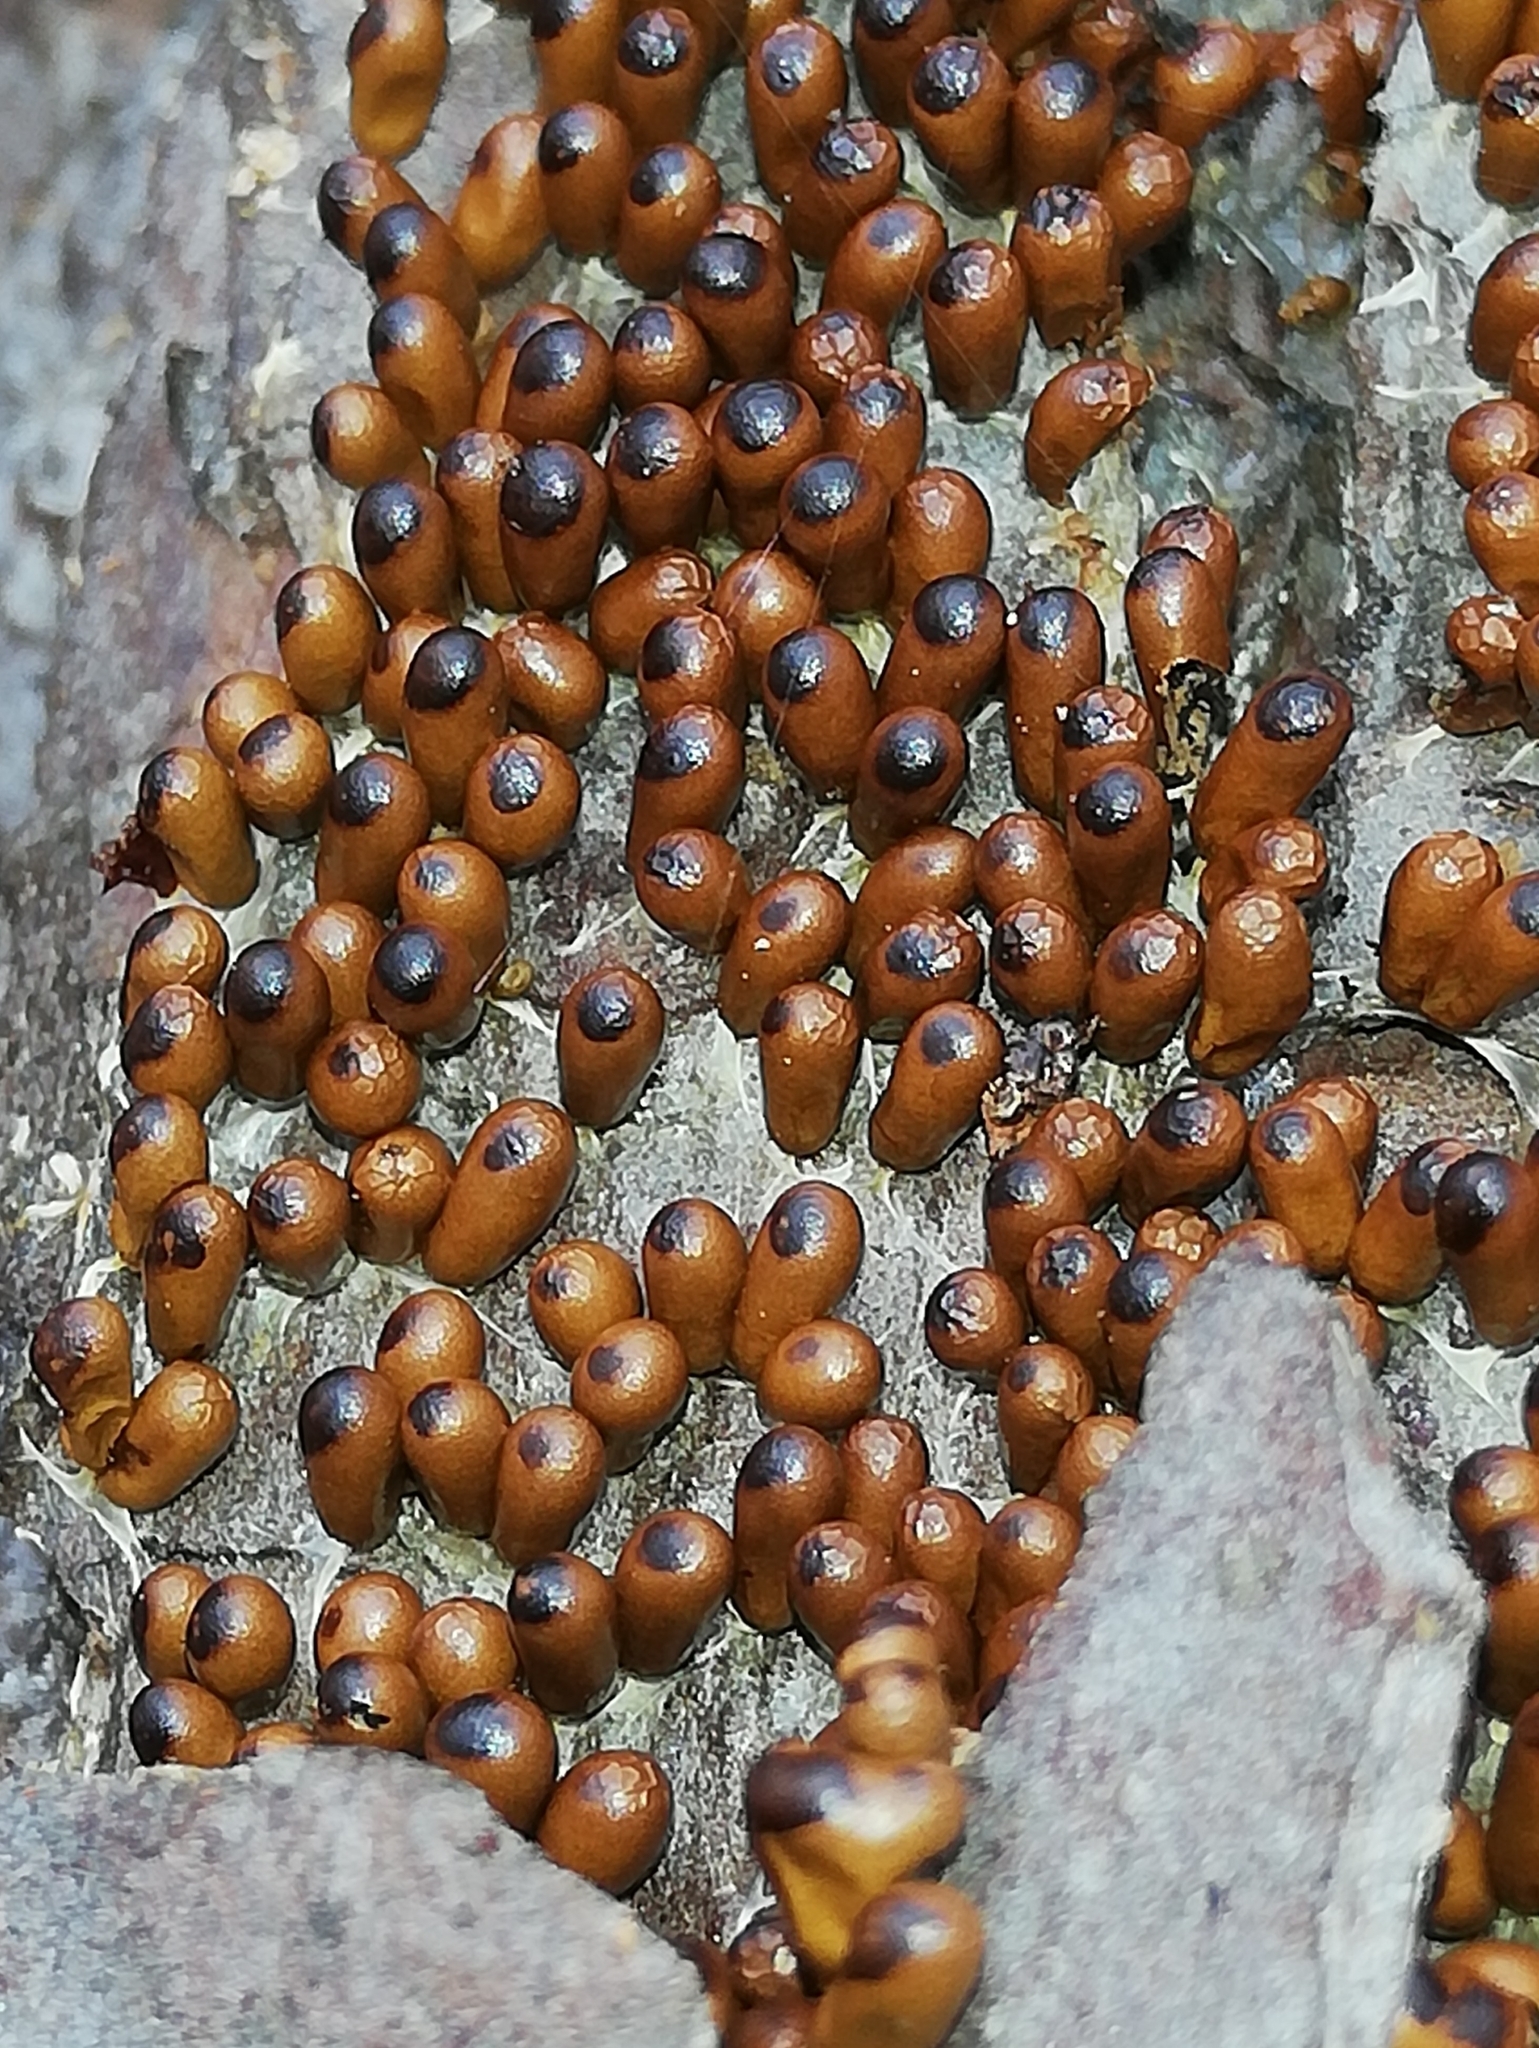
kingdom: Protozoa
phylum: Mycetozoa
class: Myxomycetes
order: Physarales
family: Physaraceae
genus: Leocarpus
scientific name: Leocarpus fragilis
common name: Insect-egg slime
